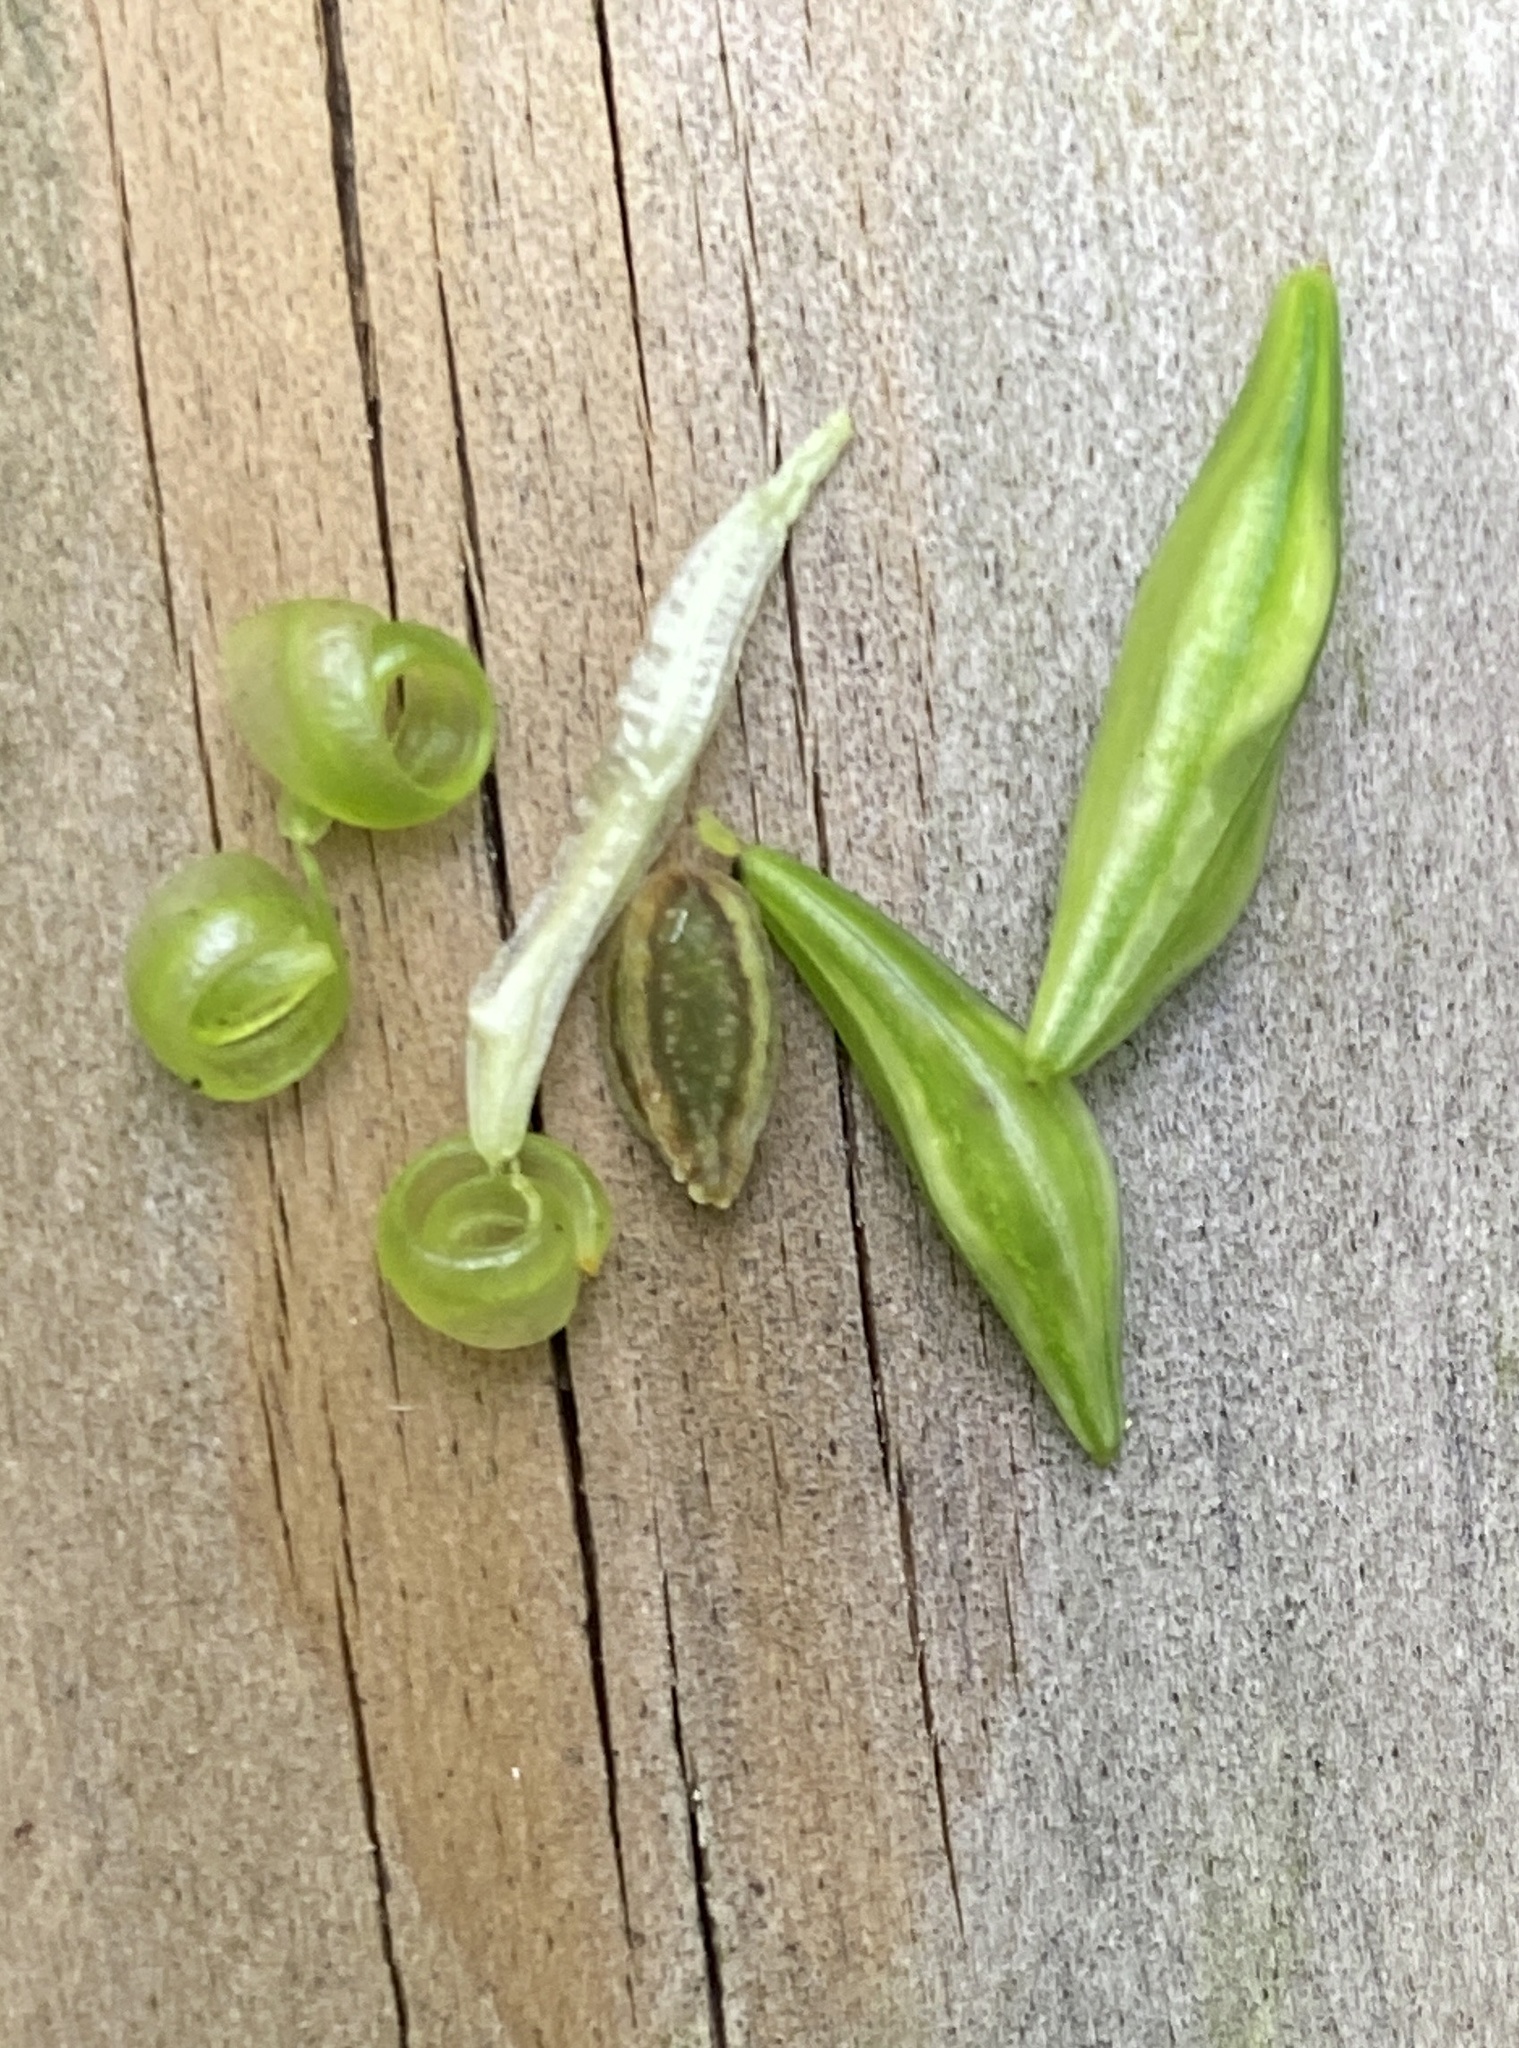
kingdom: Plantae
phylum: Tracheophyta
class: Magnoliopsida
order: Ericales
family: Balsaminaceae
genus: Impatiens
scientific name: Impatiens capensis
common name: Orange balsam
